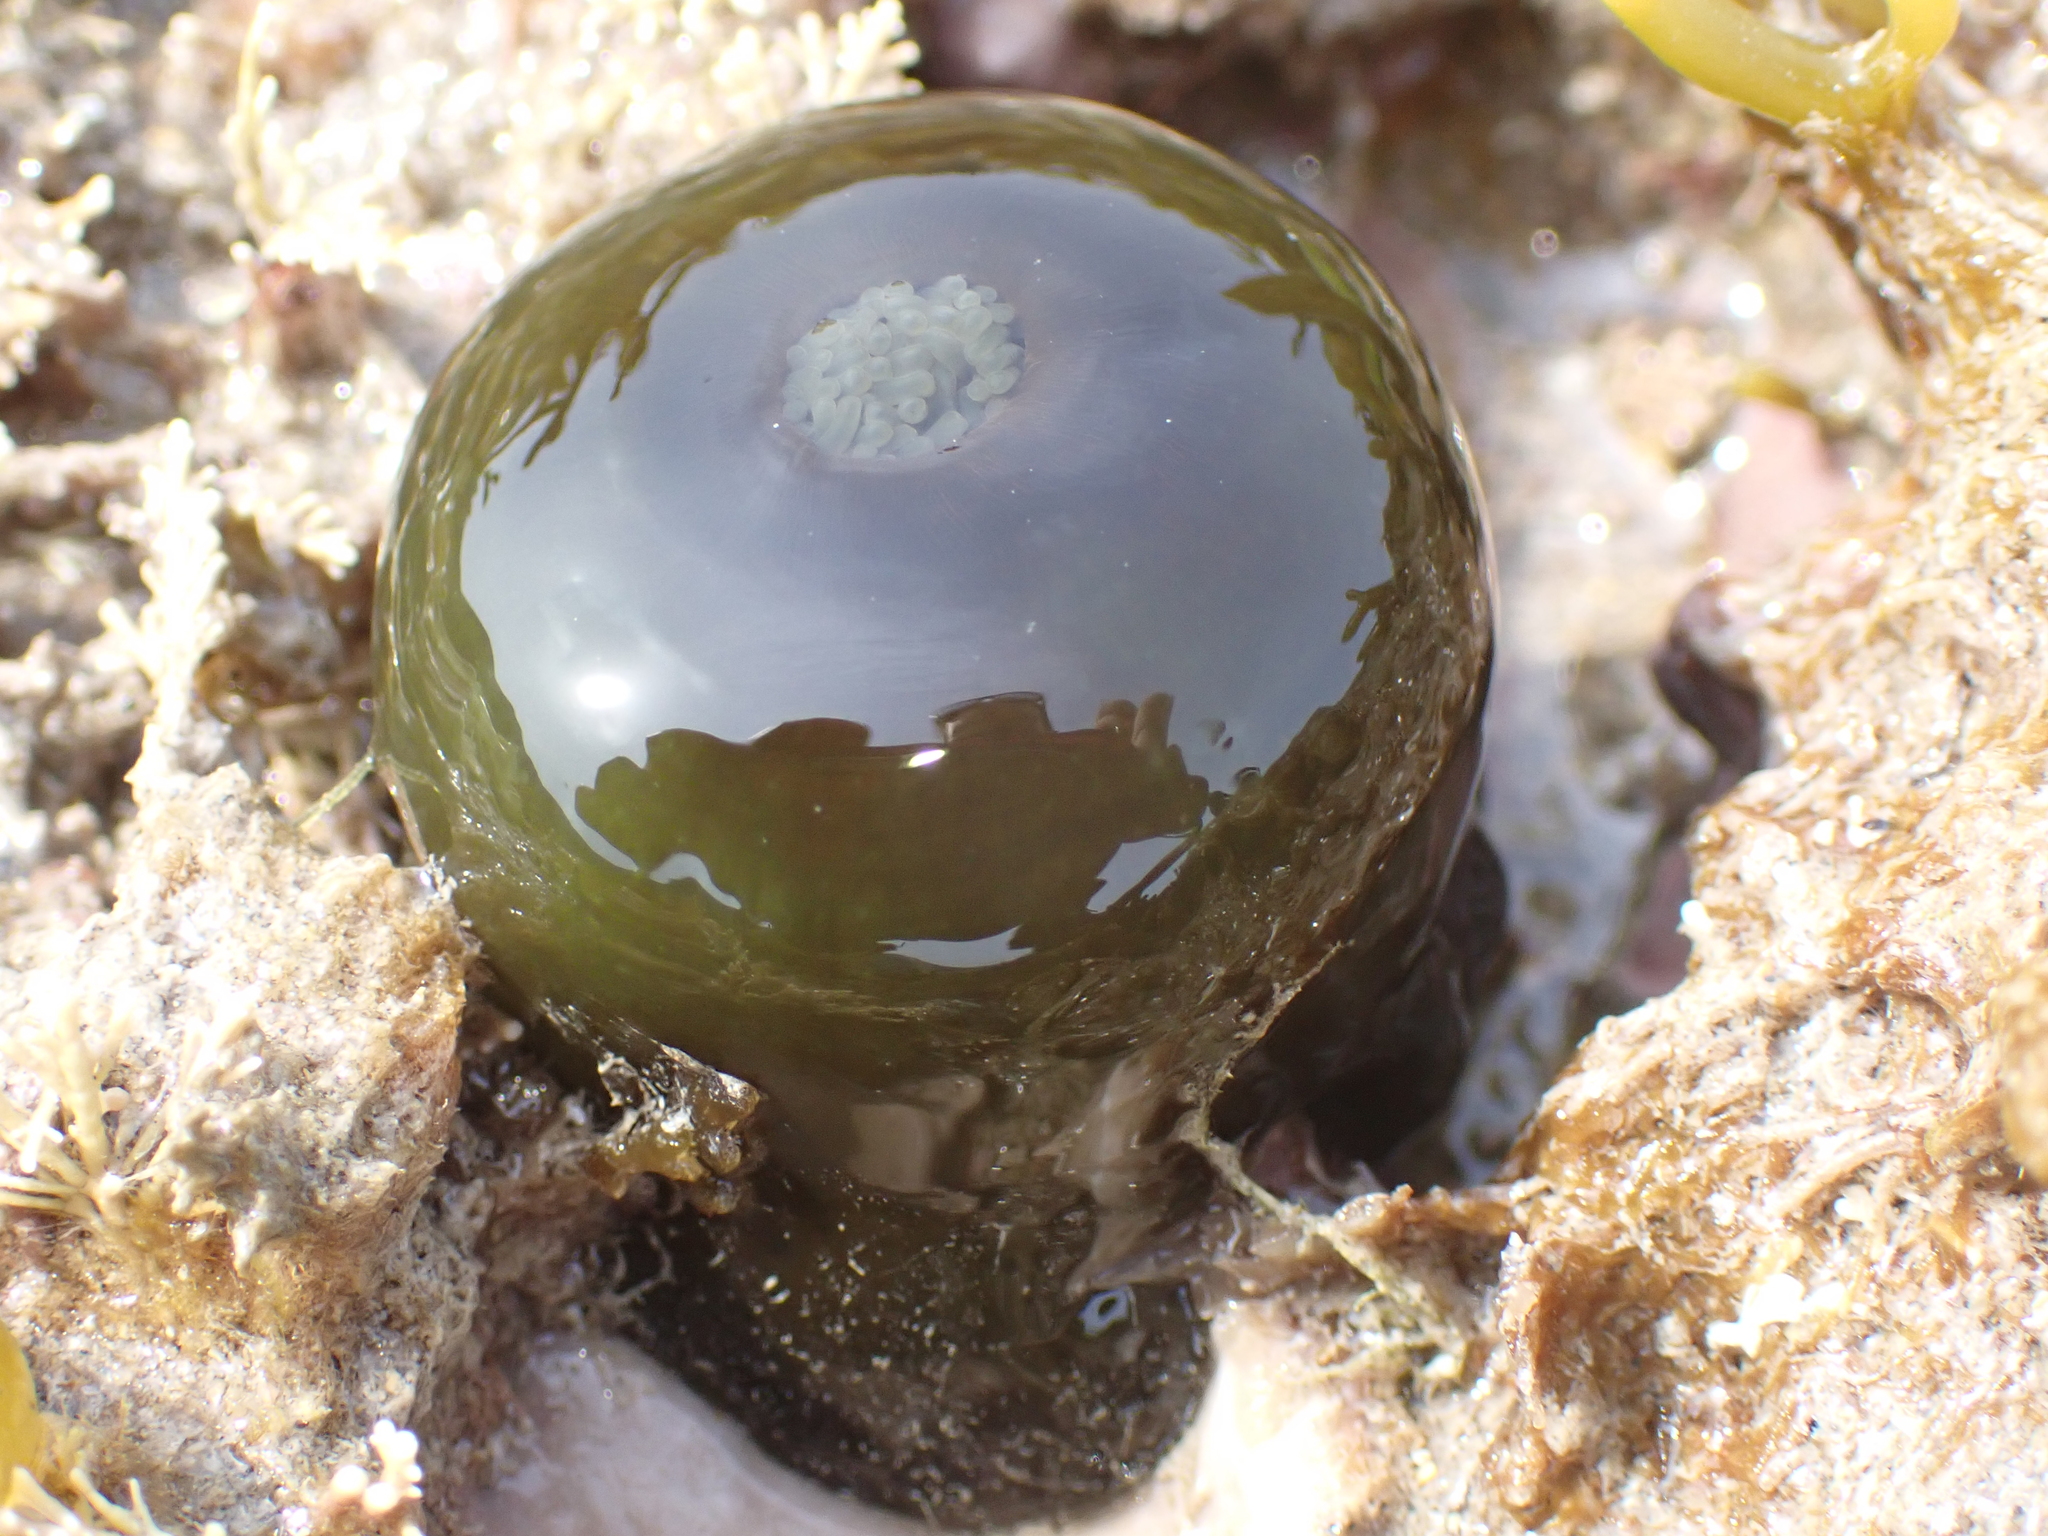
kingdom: Animalia
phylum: Cnidaria
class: Anthozoa
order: Actiniaria
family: Actiniidae
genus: Actinia
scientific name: Actinia equina
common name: Beadlet anemone
